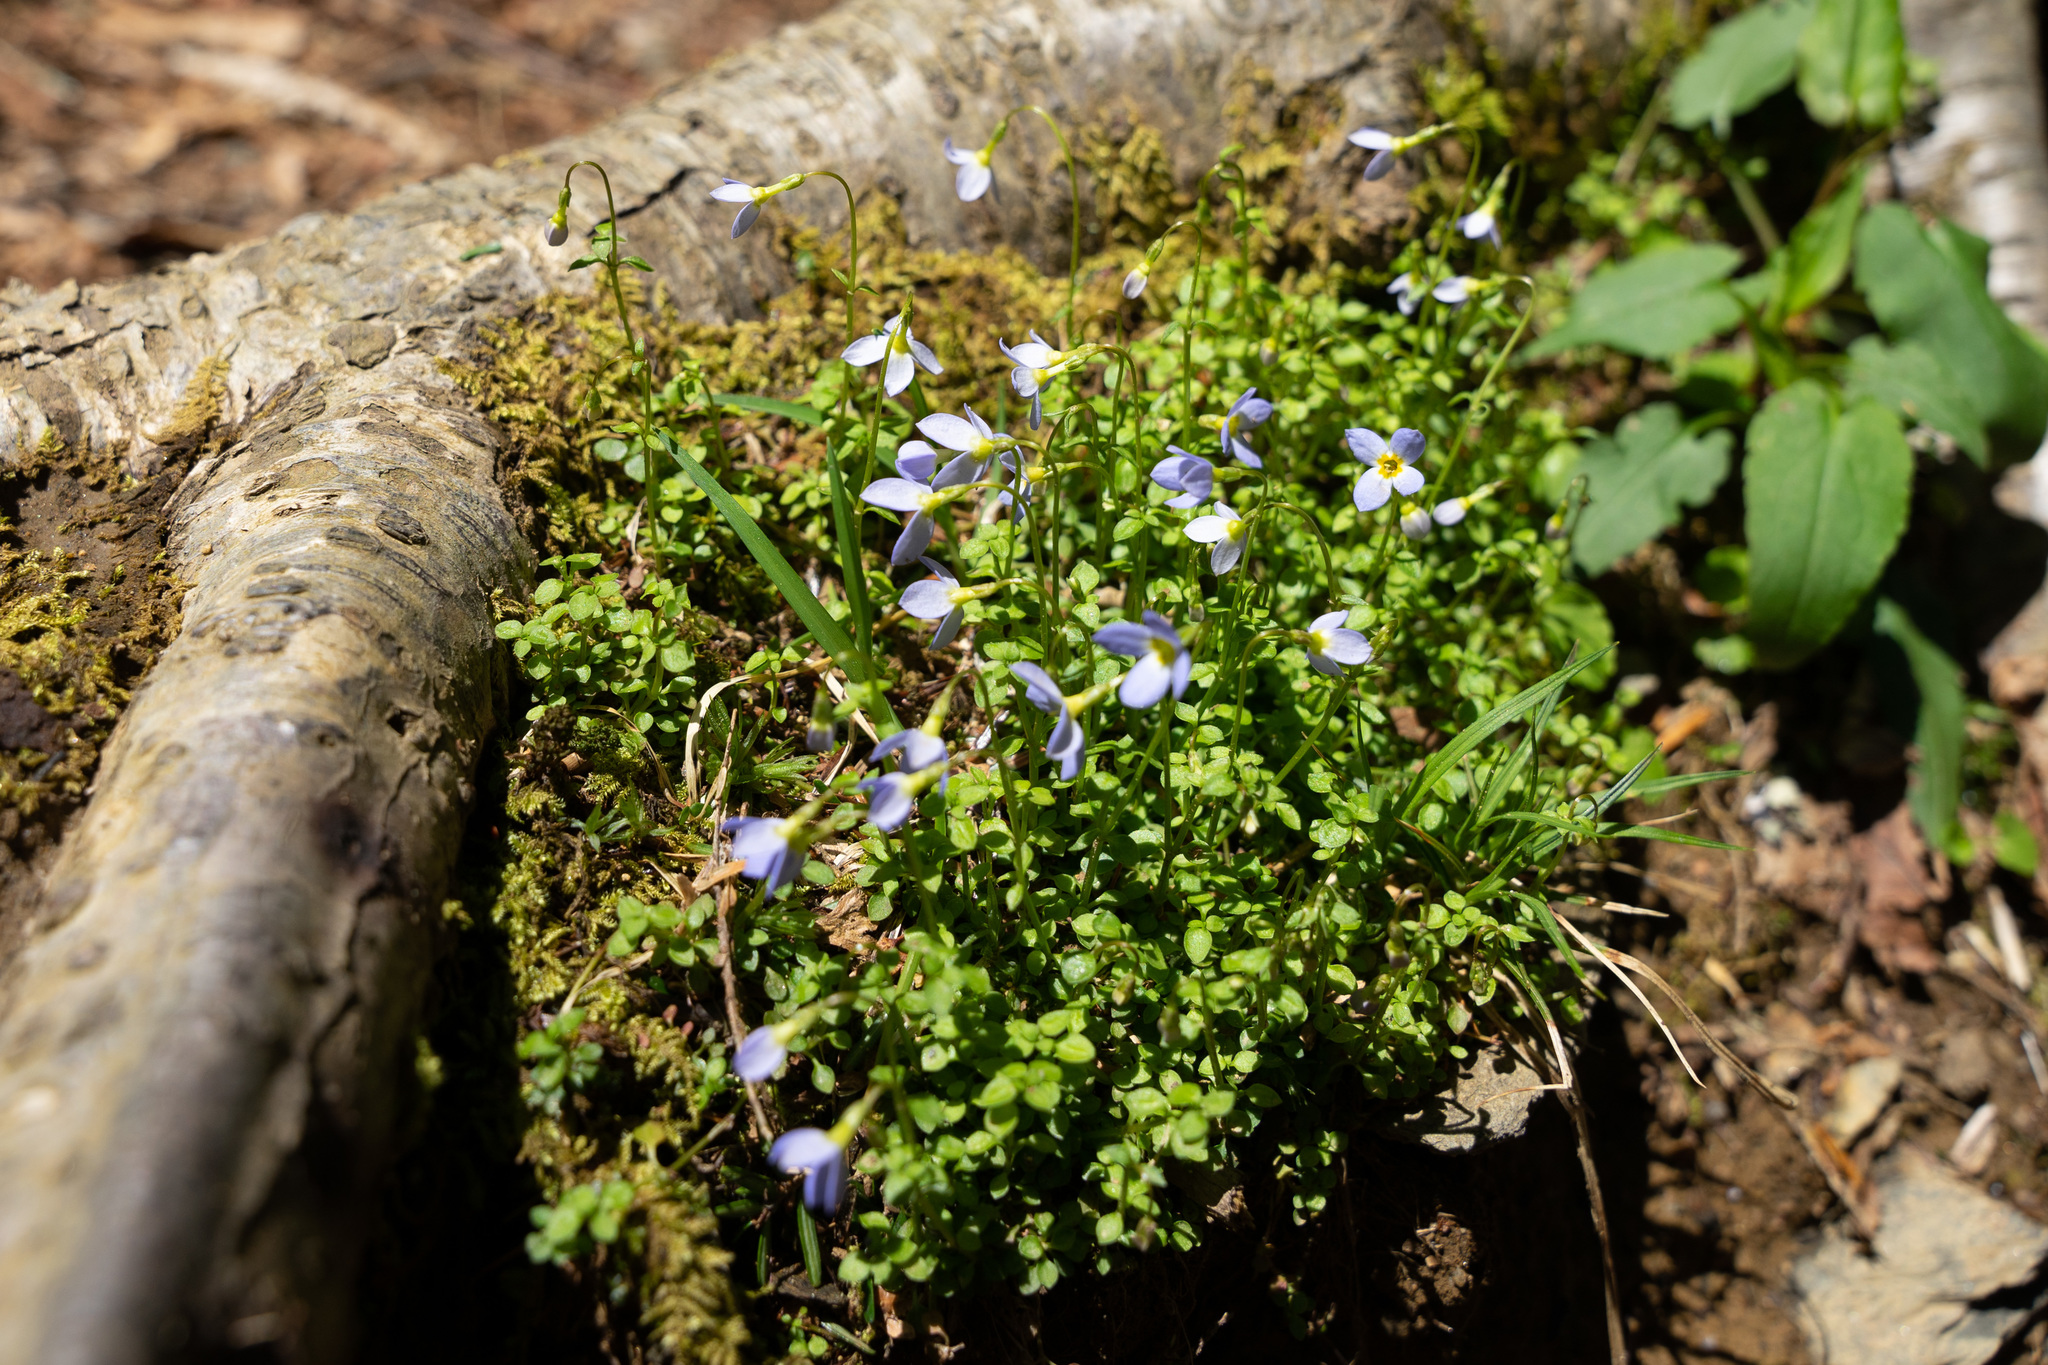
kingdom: Plantae
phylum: Tracheophyta
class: Magnoliopsida
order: Gentianales
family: Rubiaceae
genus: Houstonia
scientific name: Houstonia serpyllifolia
